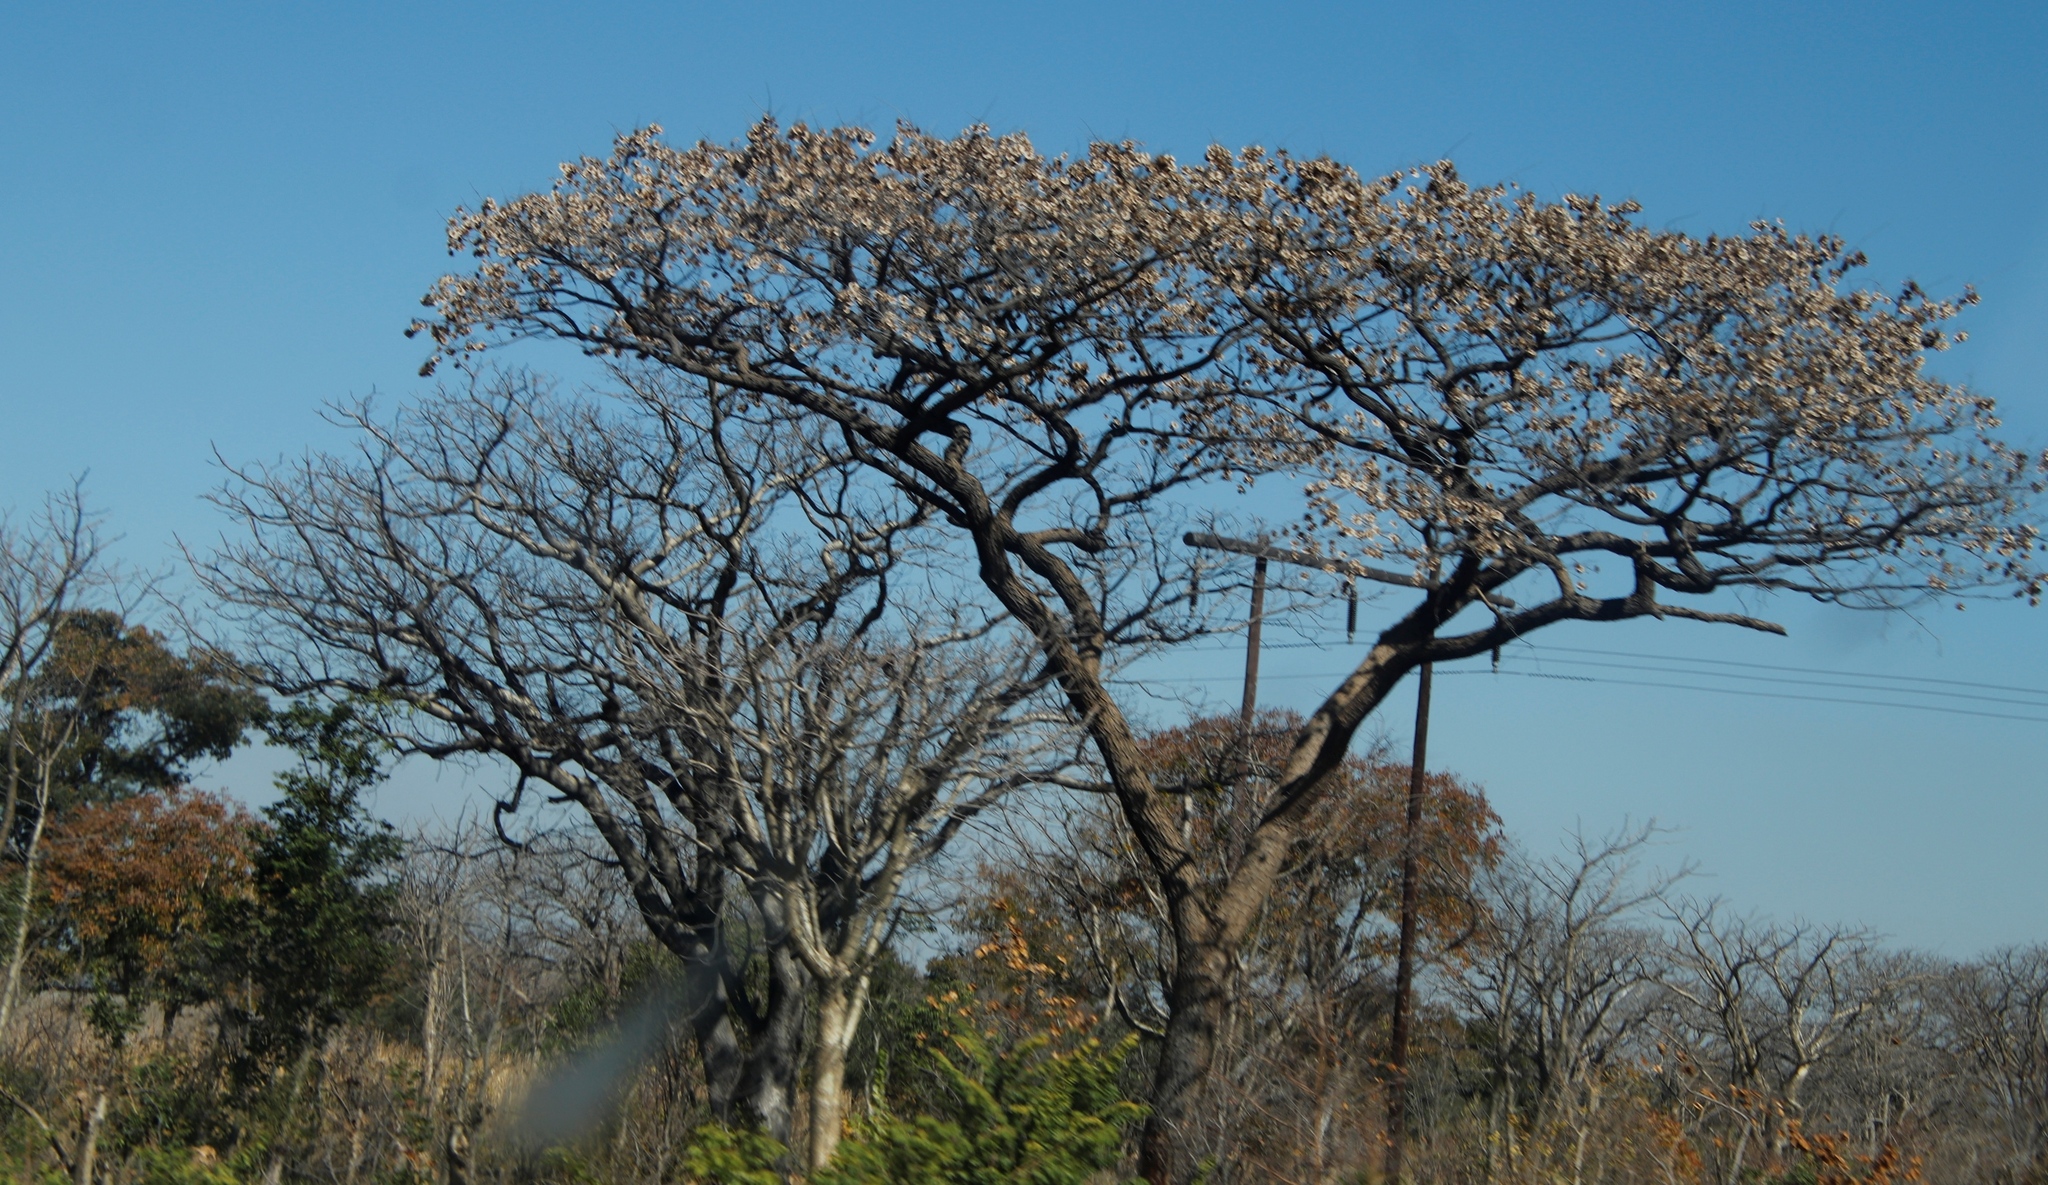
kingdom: Plantae
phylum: Tracheophyta
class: Magnoliopsida
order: Fabales
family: Fabaceae
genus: Pterocarpus
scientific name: Pterocarpus angolensis
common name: Bloodwood tree
